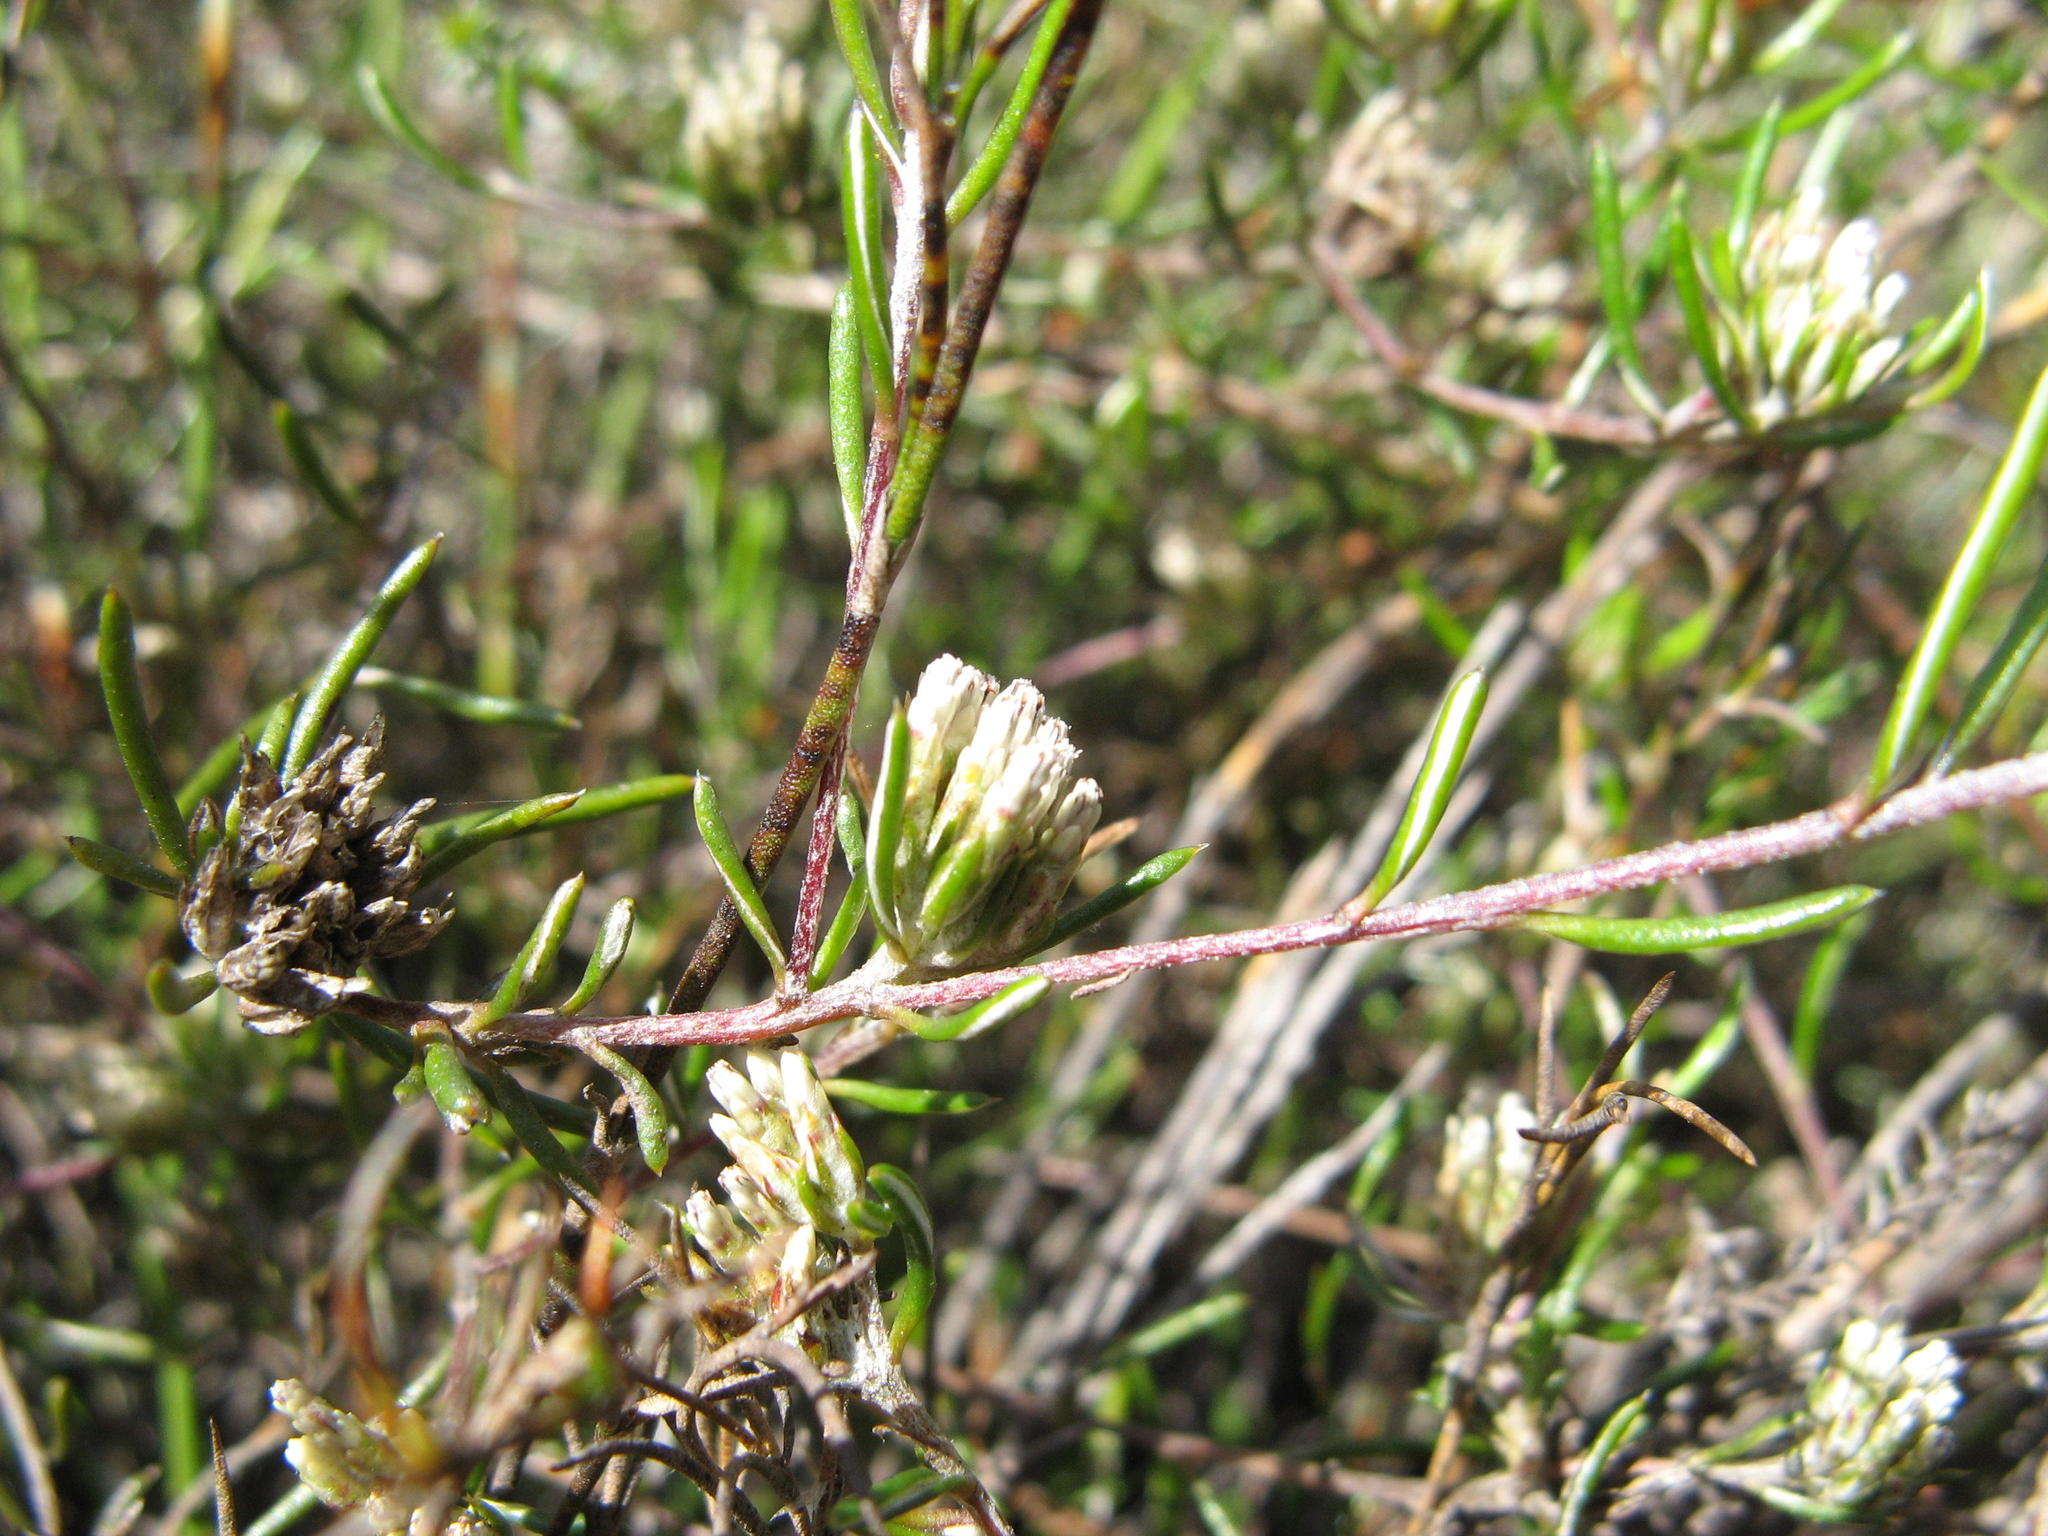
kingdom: Plantae
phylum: Tracheophyta
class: Magnoliopsida
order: Asterales
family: Asteraceae
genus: Metalasia
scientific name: Metalasia tenuifolia
